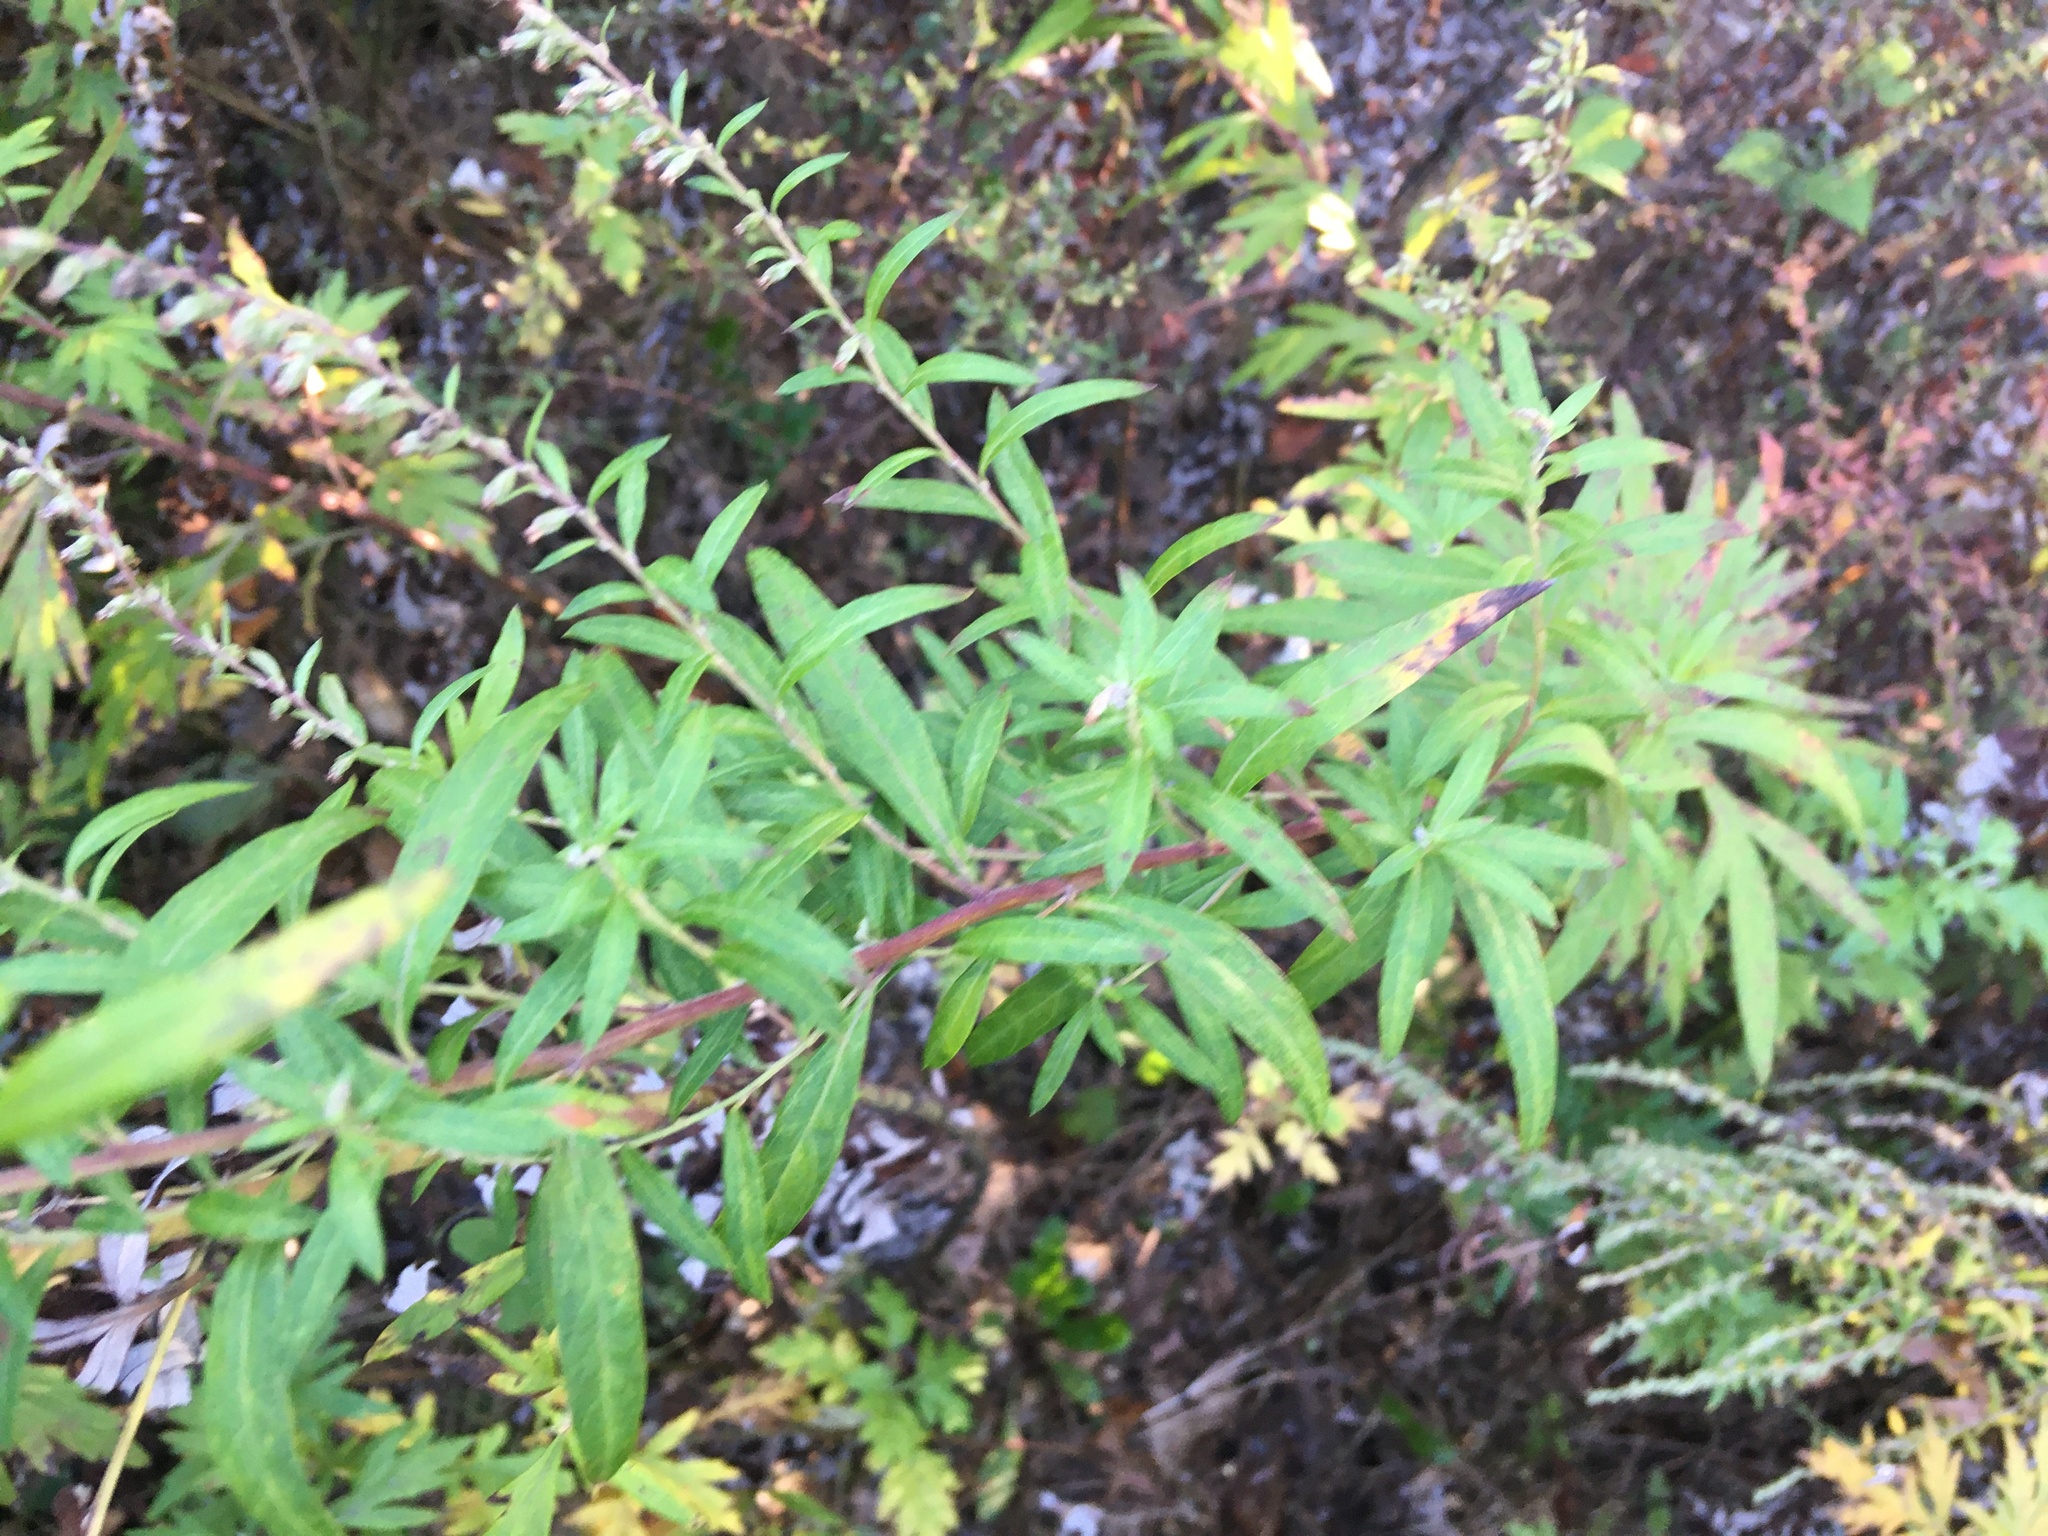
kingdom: Plantae
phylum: Tracheophyta
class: Magnoliopsida
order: Asterales
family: Asteraceae
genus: Artemisia
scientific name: Artemisia vulgaris
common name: Mugwort
